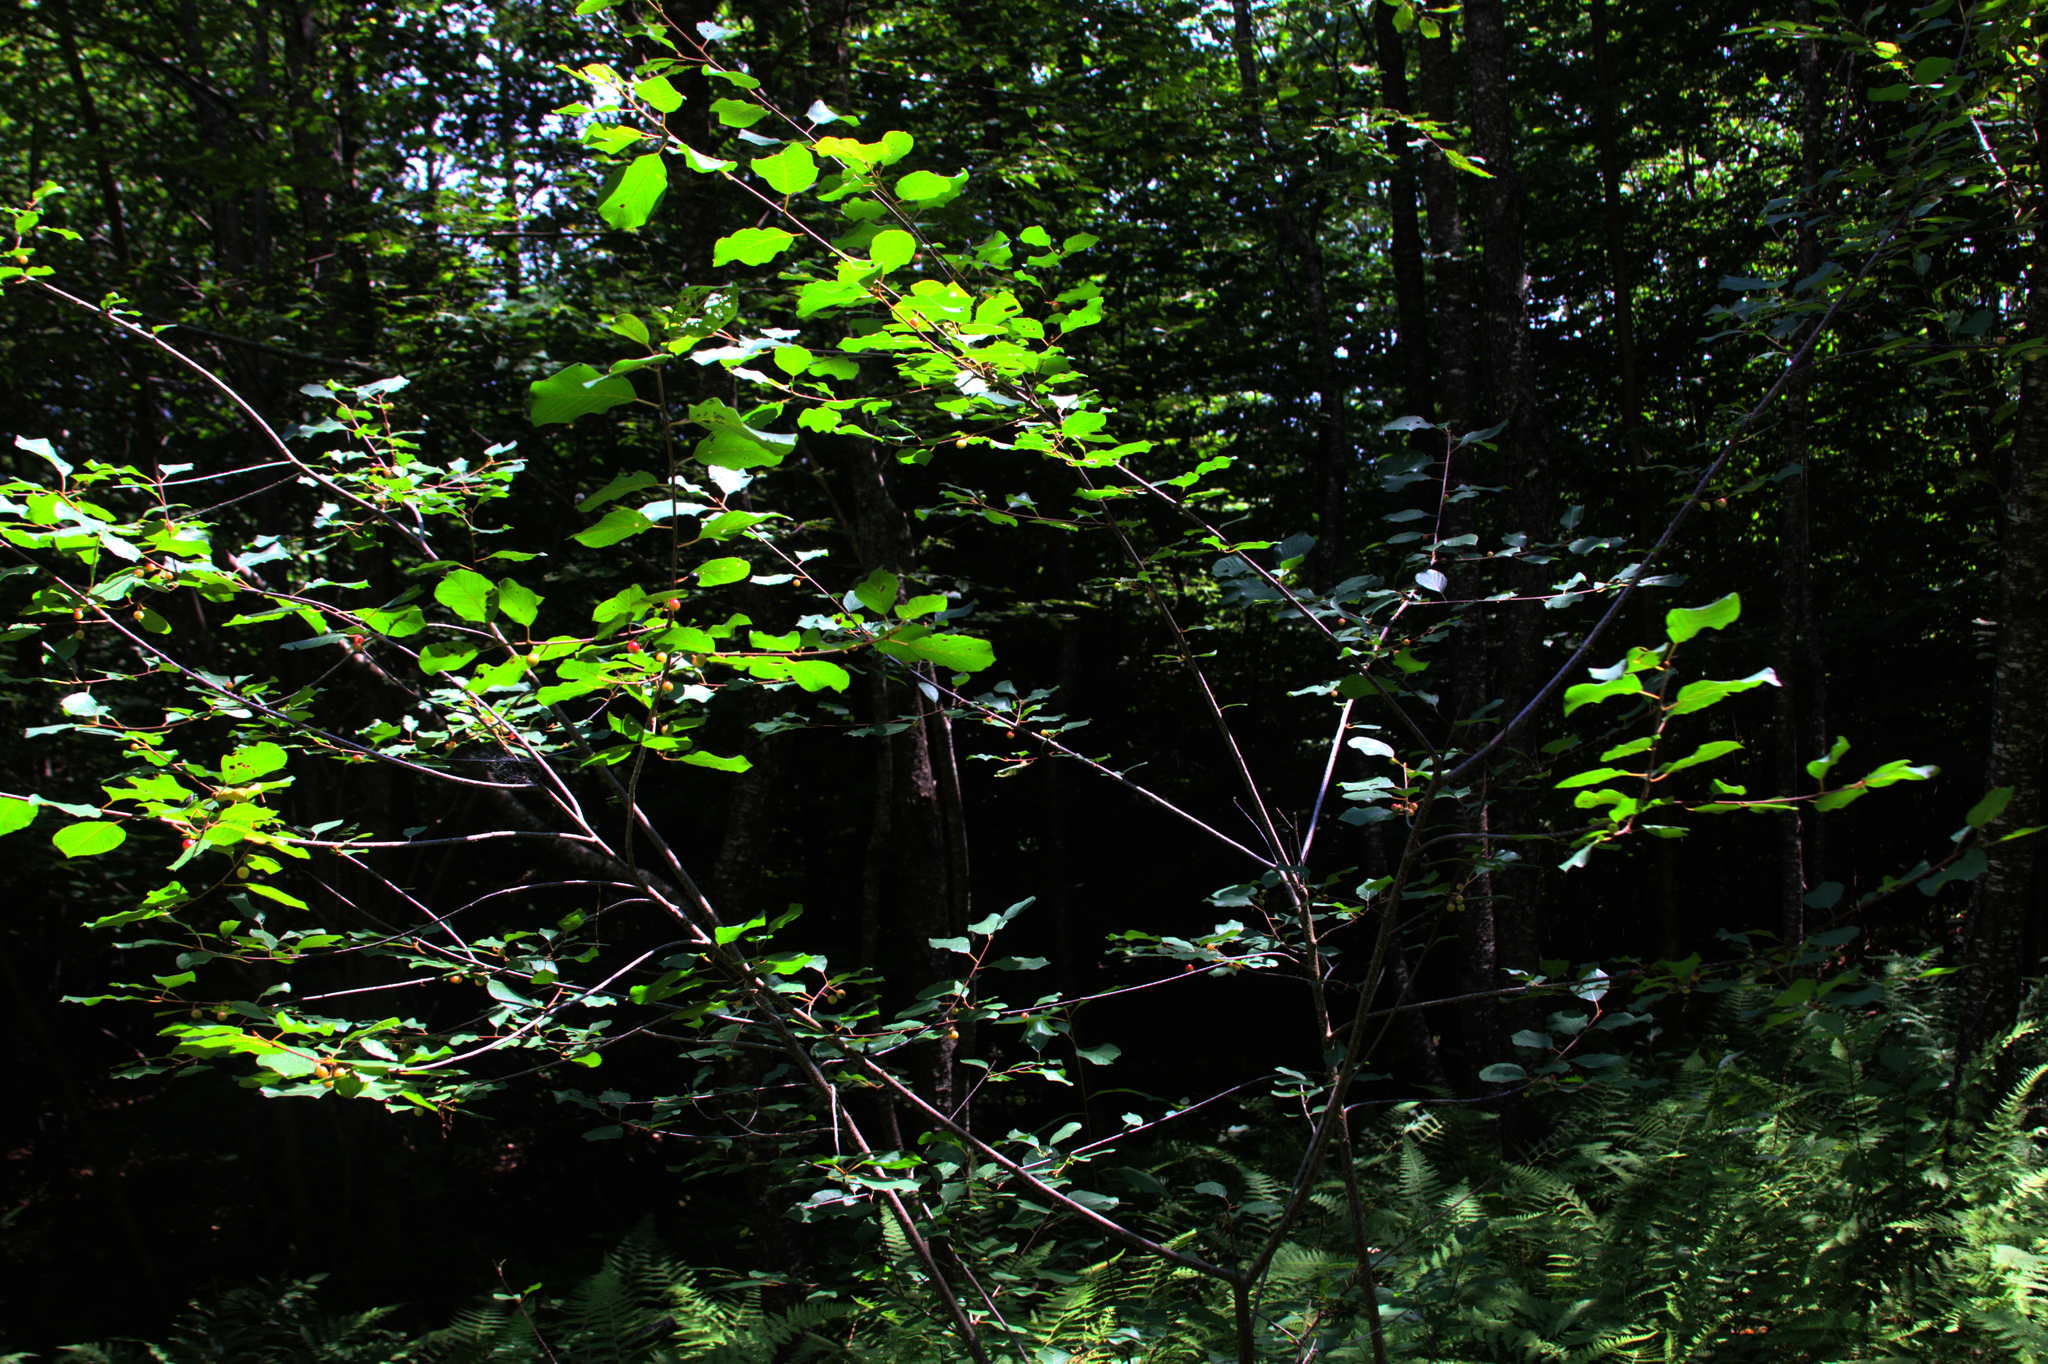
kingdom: Plantae
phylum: Tracheophyta
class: Magnoliopsida
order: Rosales
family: Rhamnaceae
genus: Frangula
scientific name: Frangula alnus
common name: Alder buckthorn
